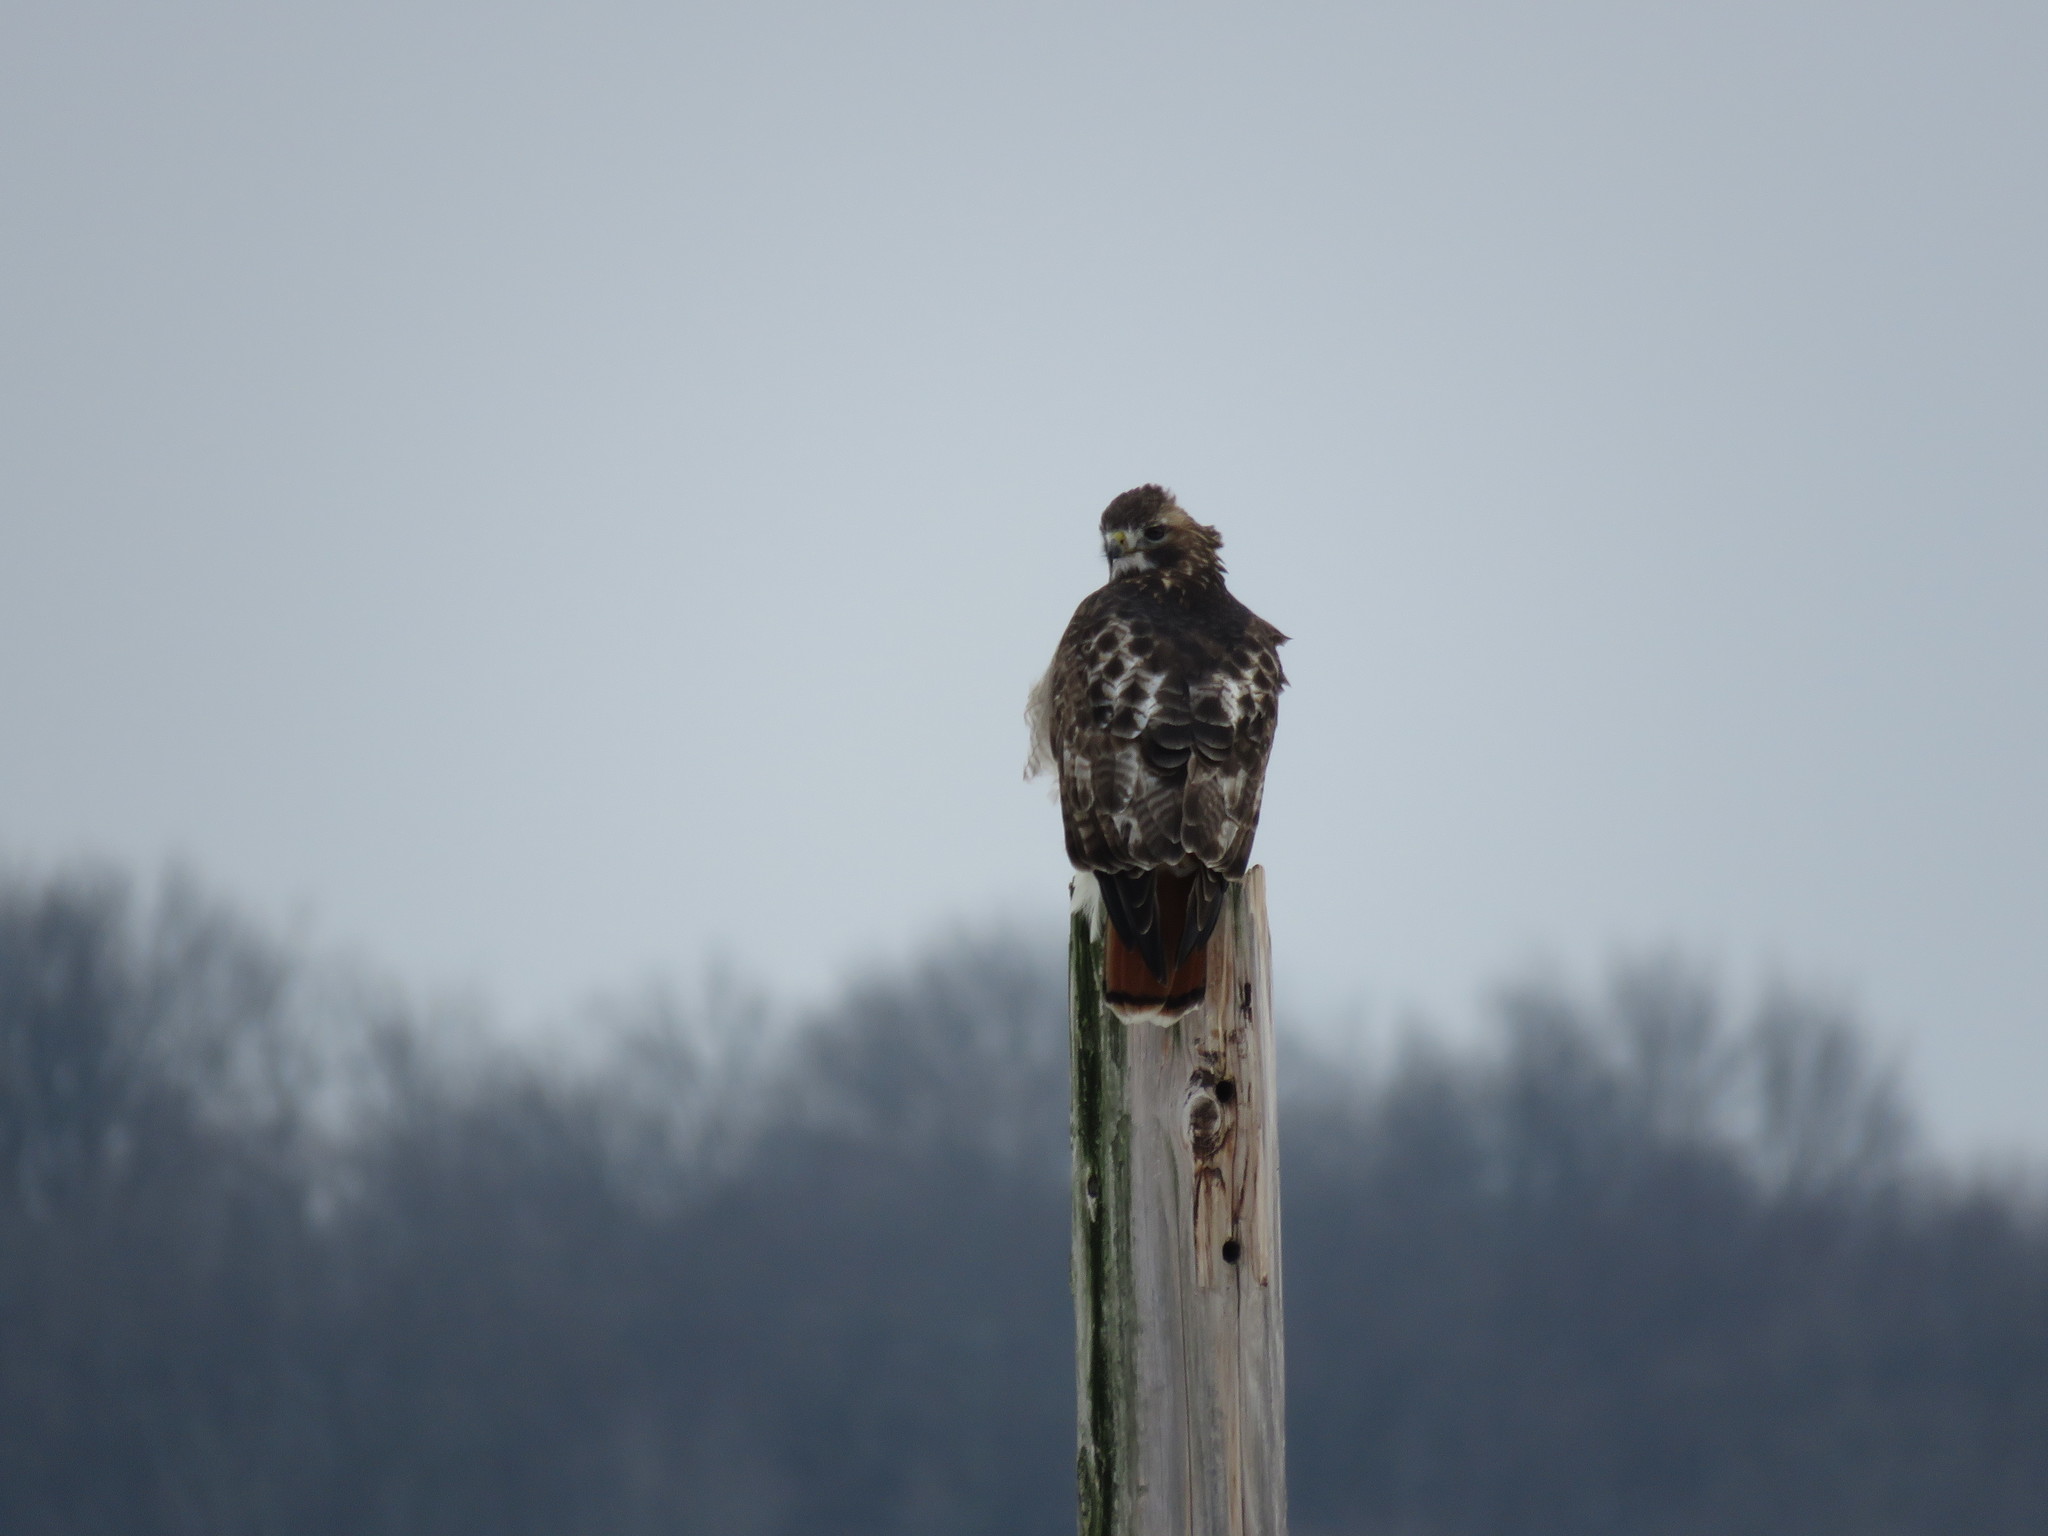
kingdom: Animalia
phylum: Chordata
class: Aves
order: Accipitriformes
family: Accipitridae
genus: Buteo
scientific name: Buteo jamaicensis
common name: Red-tailed hawk
